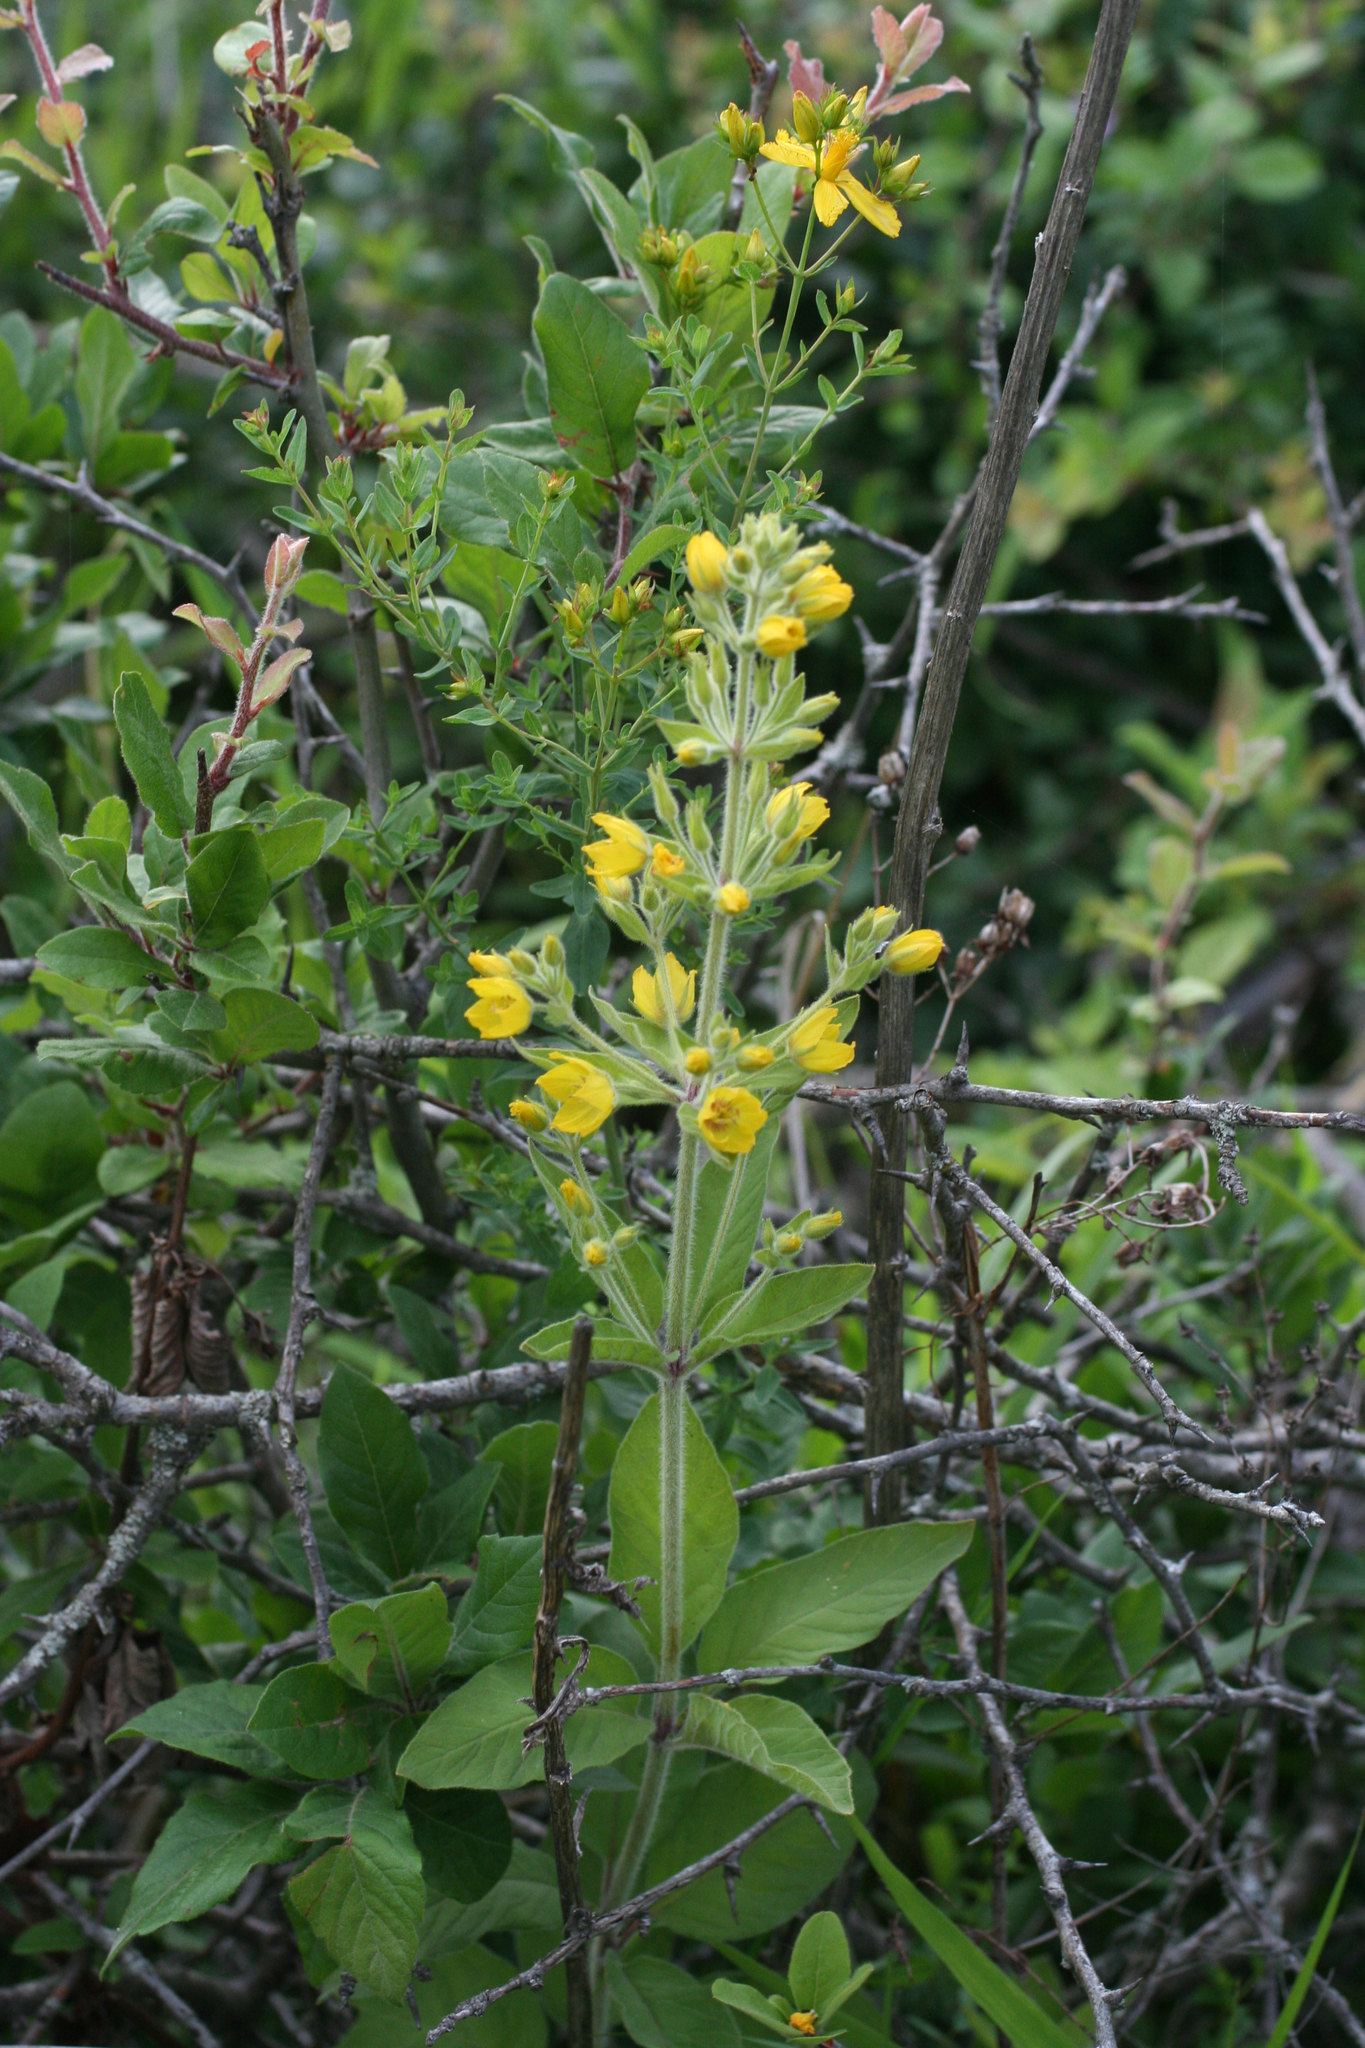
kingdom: Plantae
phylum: Tracheophyta
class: Magnoliopsida
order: Ericales
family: Primulaceae
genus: Lysimachia
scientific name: Lysimachia verticillaris
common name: Yellow loosestrife
